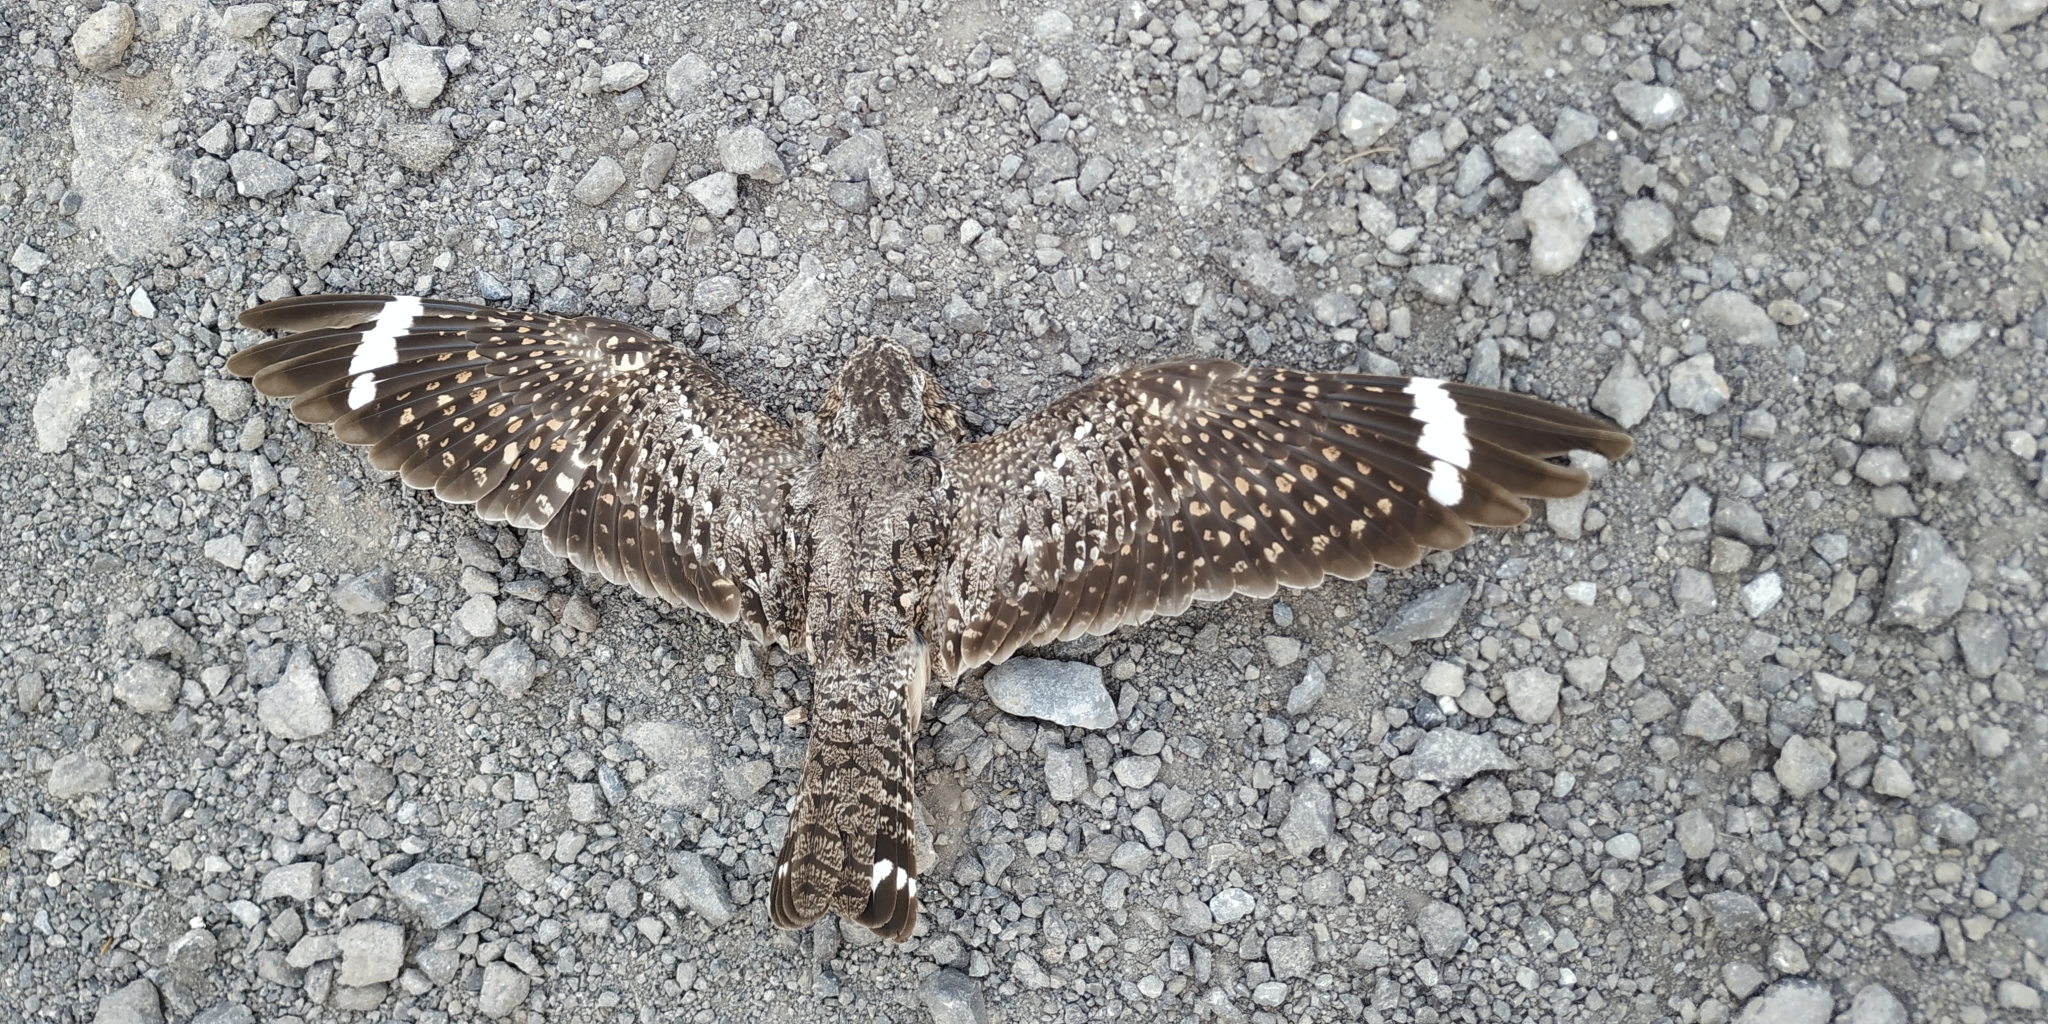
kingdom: Animalia
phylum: Chordata
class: Aves
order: Caprimulgiformes
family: Caprimulgidae
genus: Chordeiles
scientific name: Chordeiles acutipennis
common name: Lesser nighthawk
